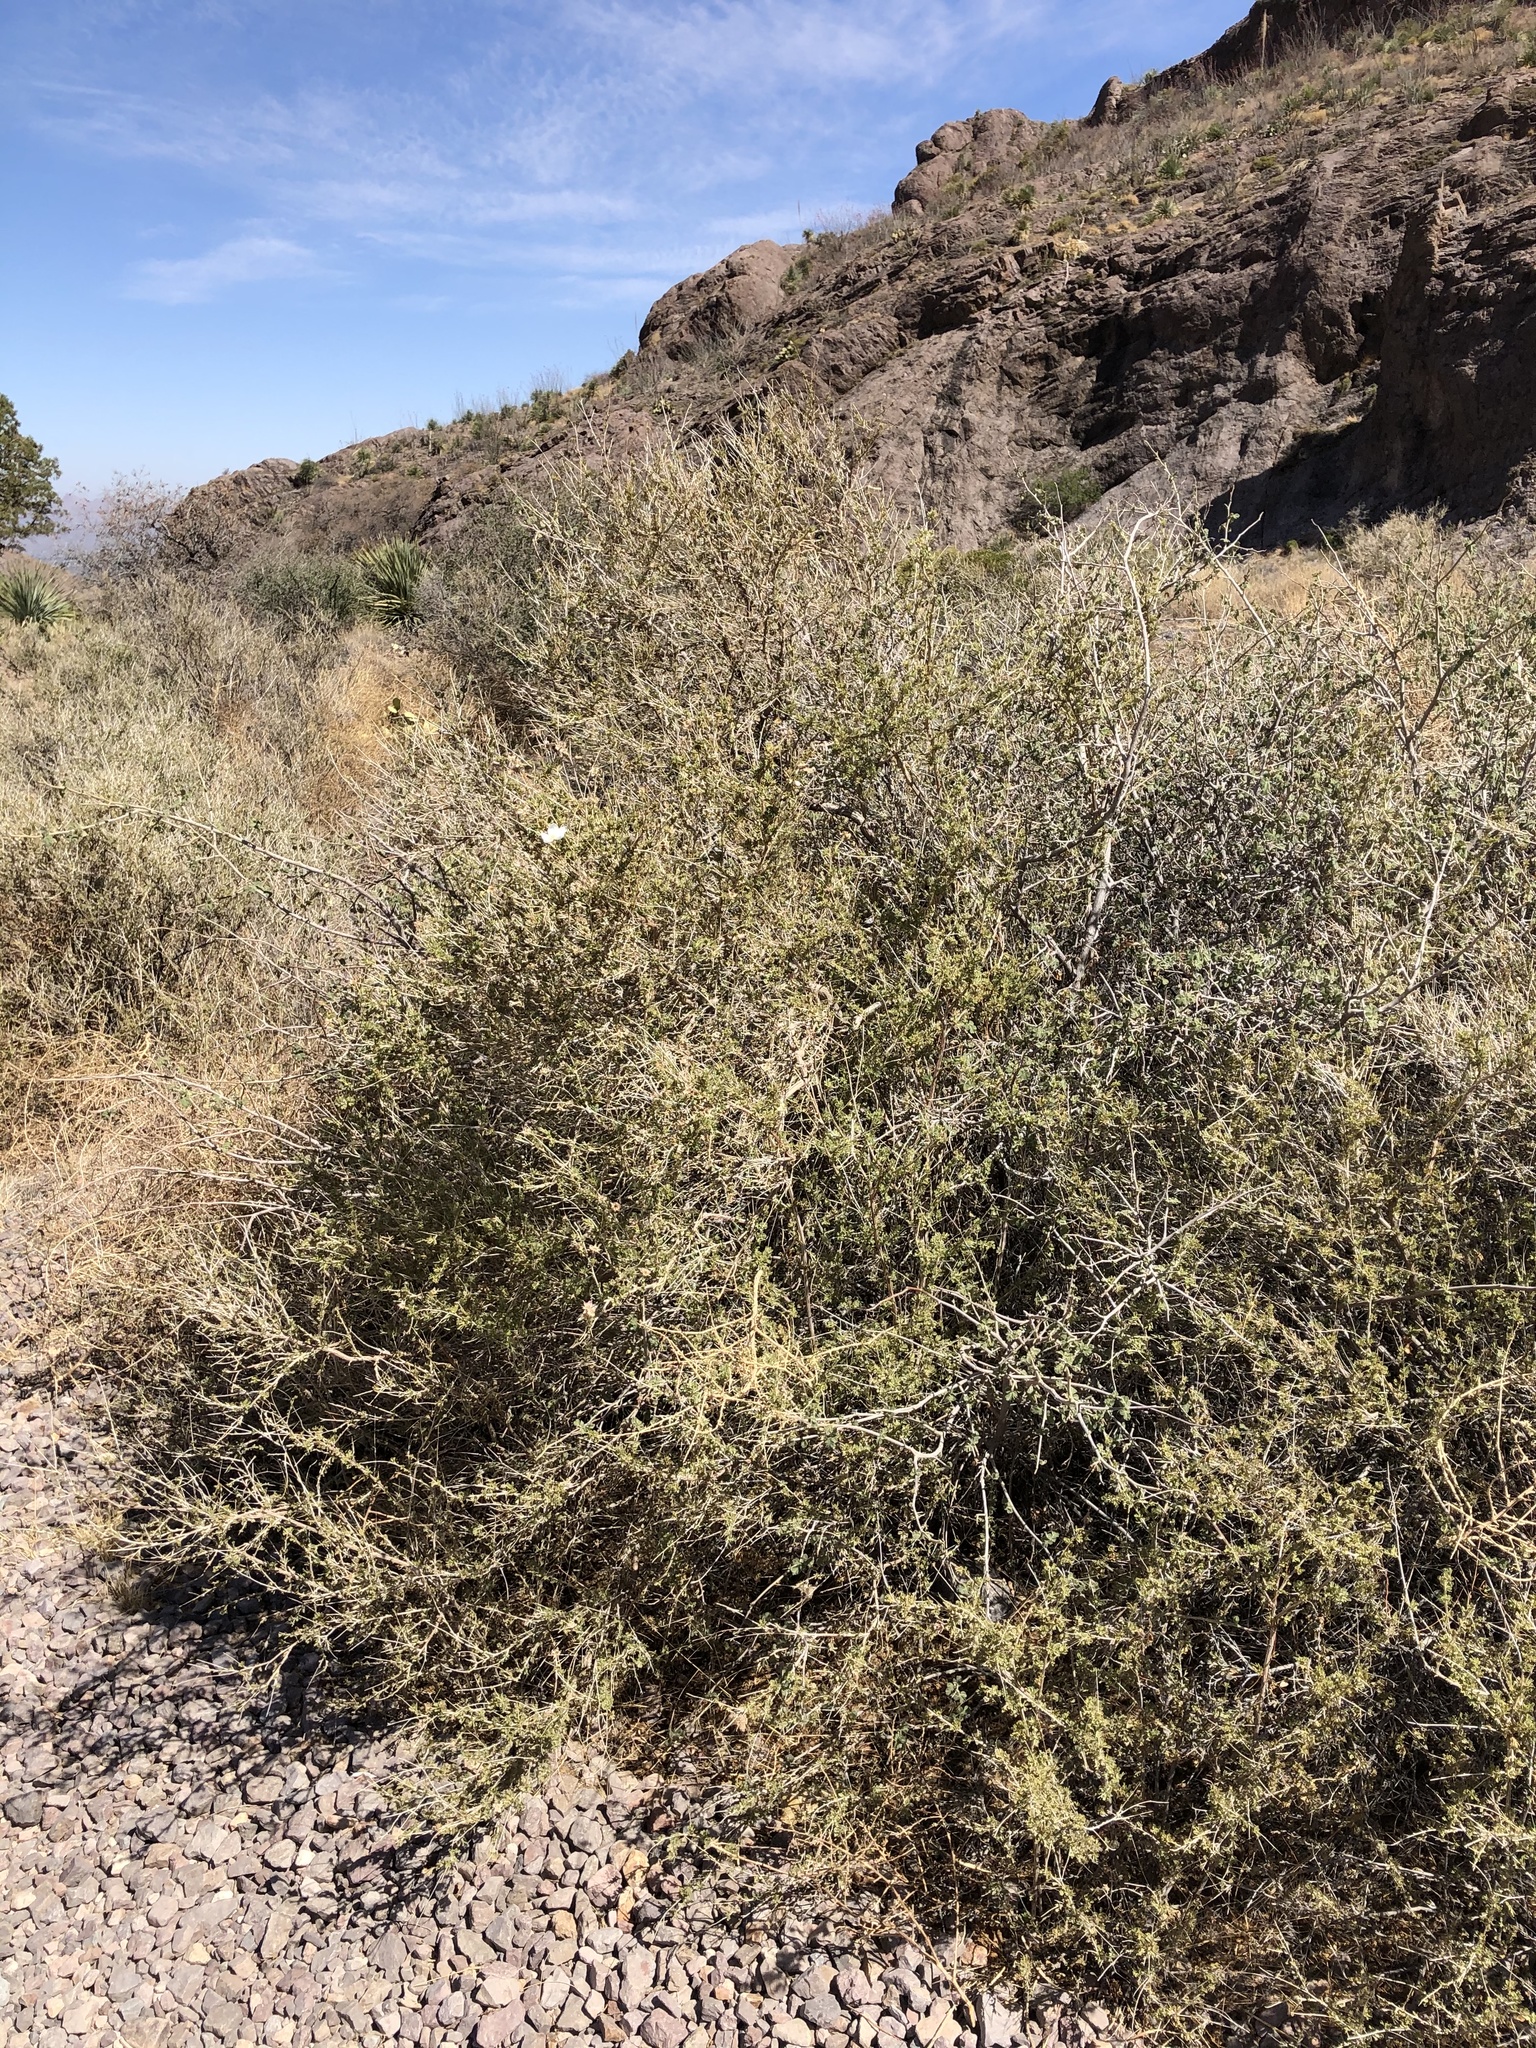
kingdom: Plantae
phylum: Tracheophyta
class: Magnoliopsida
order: Rosales
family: Rosaceae
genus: Fallugia
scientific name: Fallugia paradoxa
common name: Apache-plume
